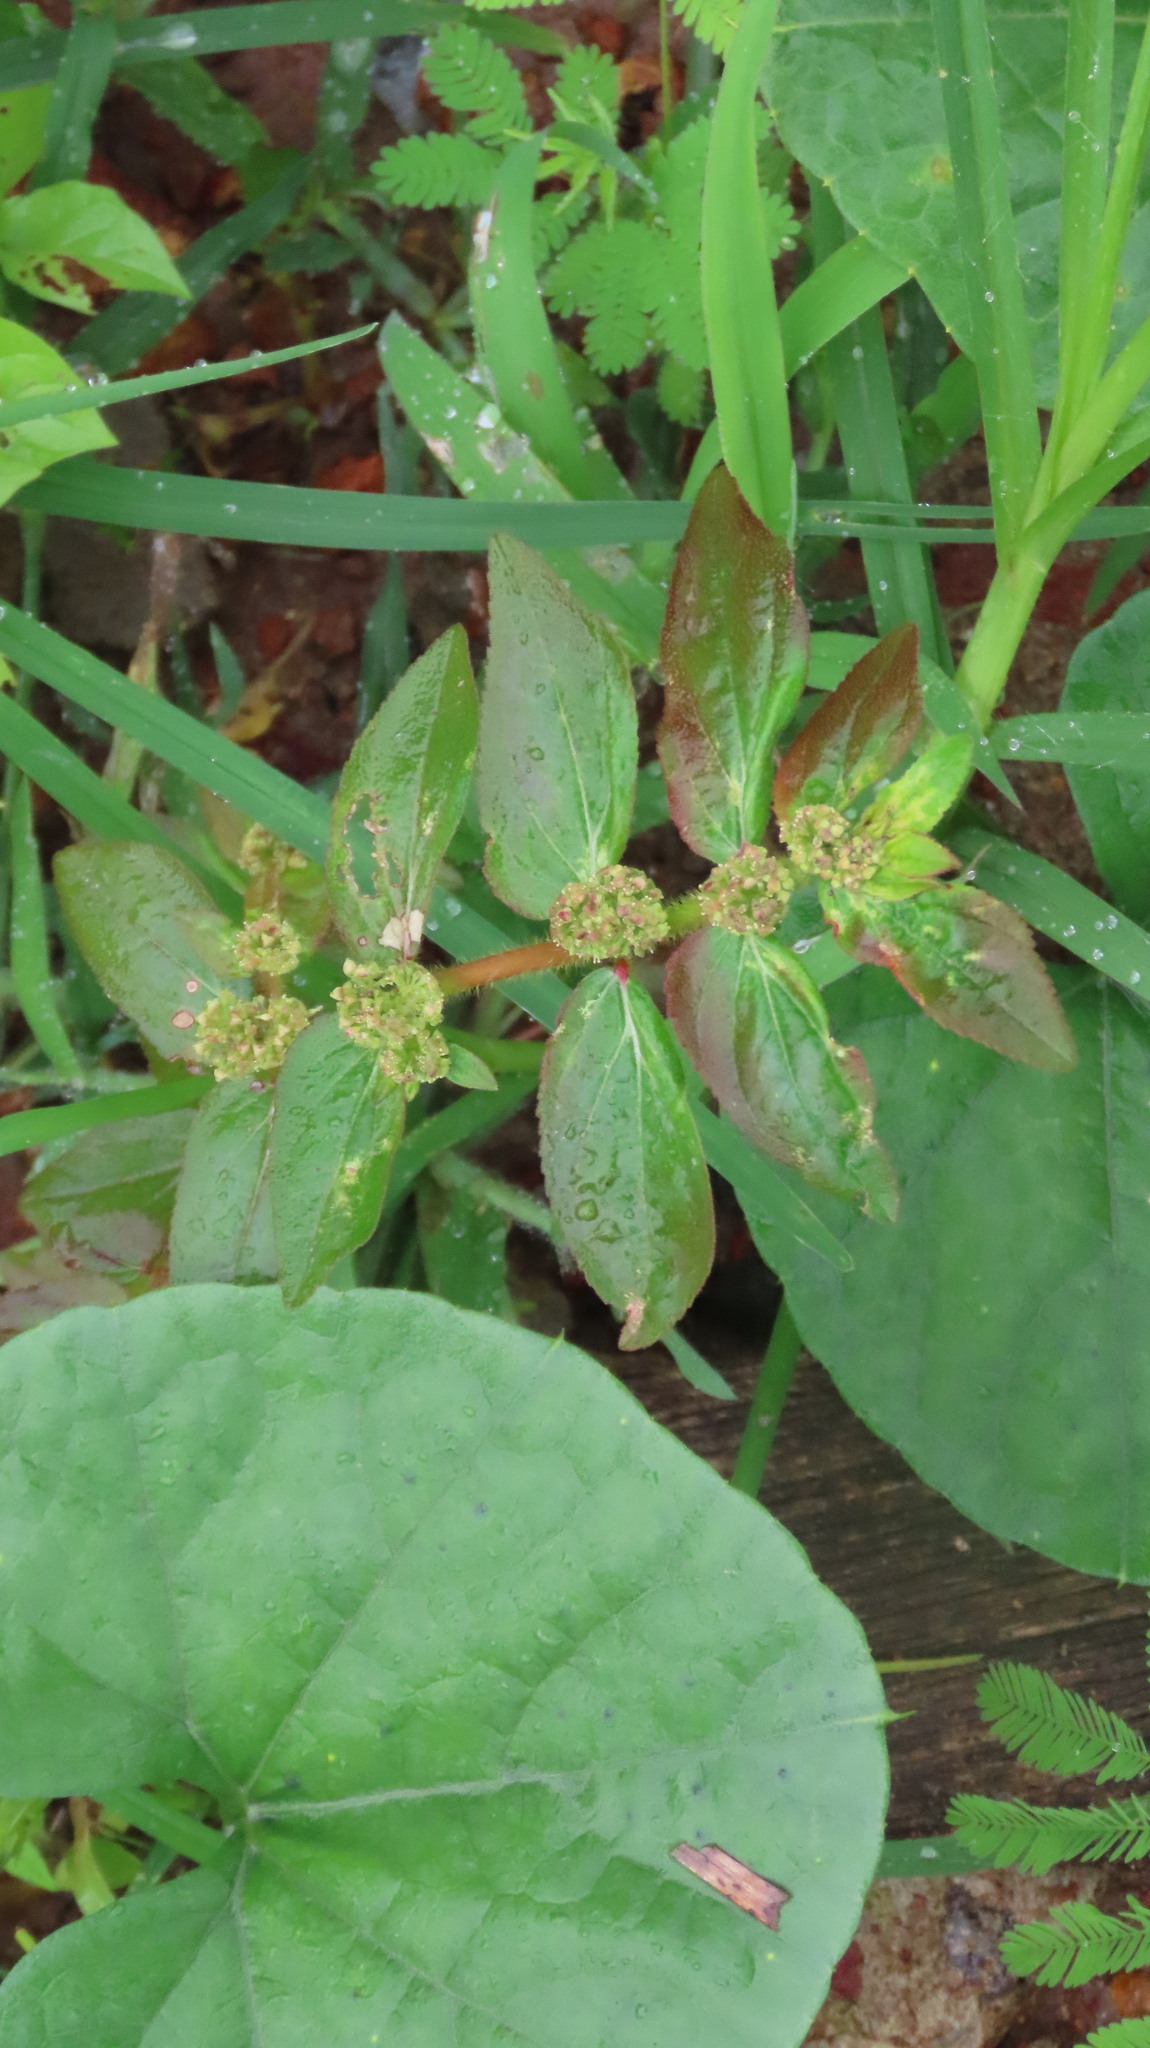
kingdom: Plantae
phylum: Tracheophyta
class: Magnoliopsida
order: Malpighiales
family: Euphorbiaceae
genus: Euphorbia
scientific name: Euphorbia hirta
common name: Pillpod sandmat
